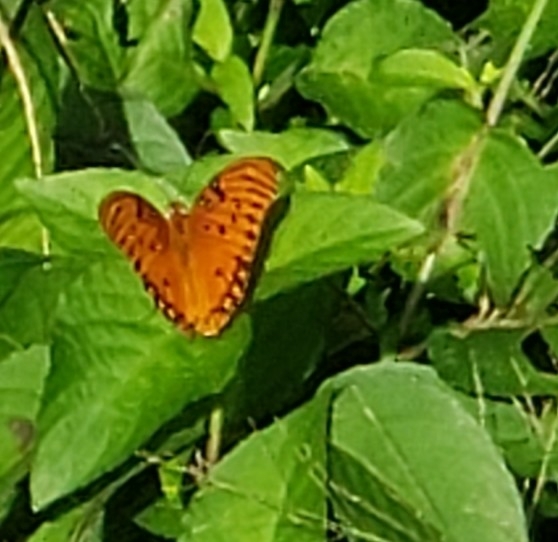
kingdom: Animalia
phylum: Arthropoda
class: Insecta
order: Lepidoptera
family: Nymphalidae
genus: Dione
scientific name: Dione vanillae
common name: Gulf fritillary
